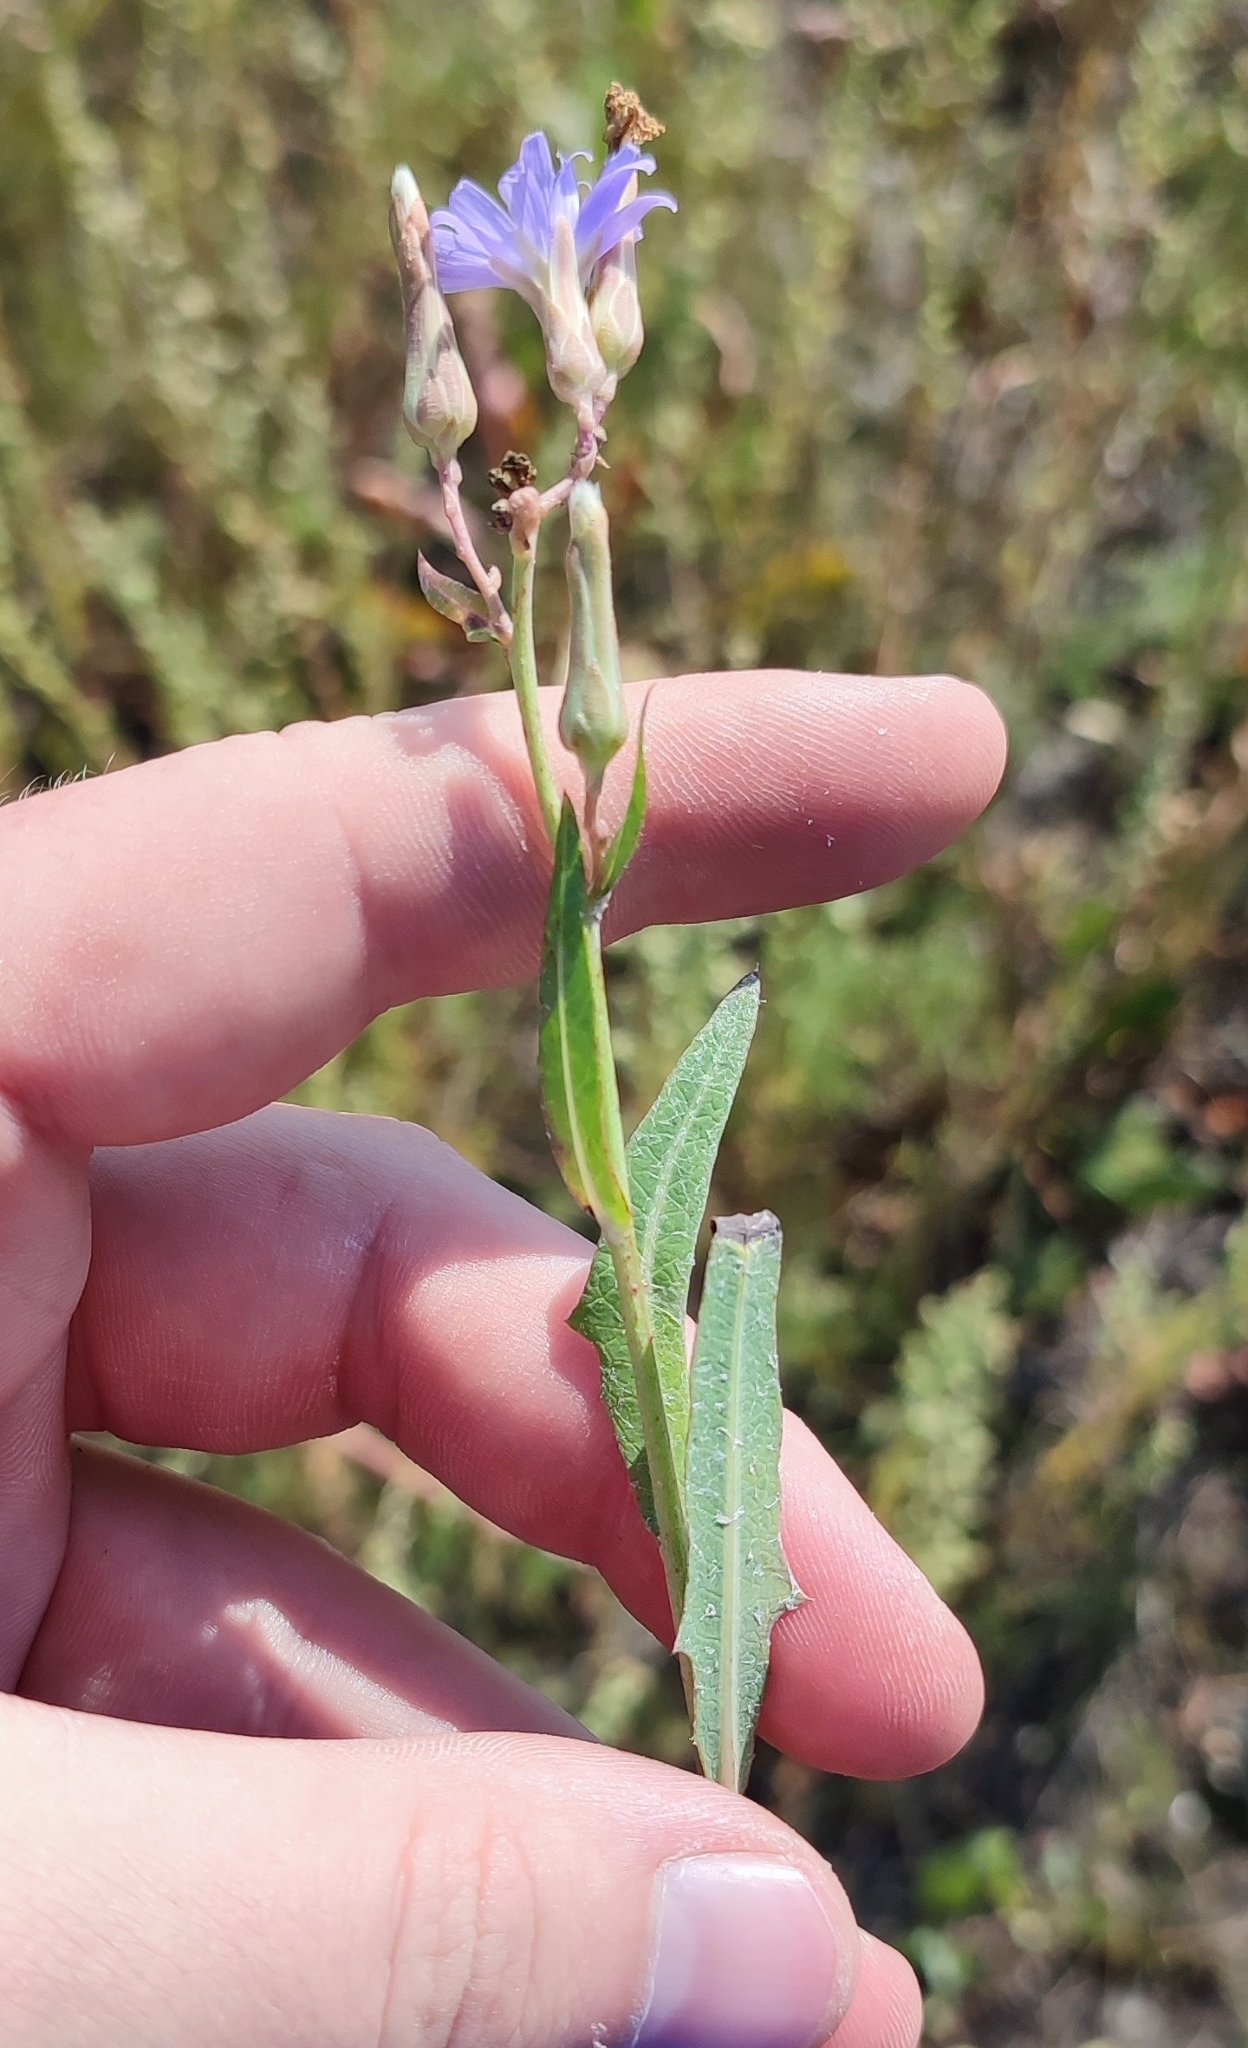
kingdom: Plantae
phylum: Tracheophyta
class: Magnoliopsida
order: Asterales
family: Asteraceae
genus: Lactuca
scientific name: Lactuca tatarica
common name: Blue lettuce
